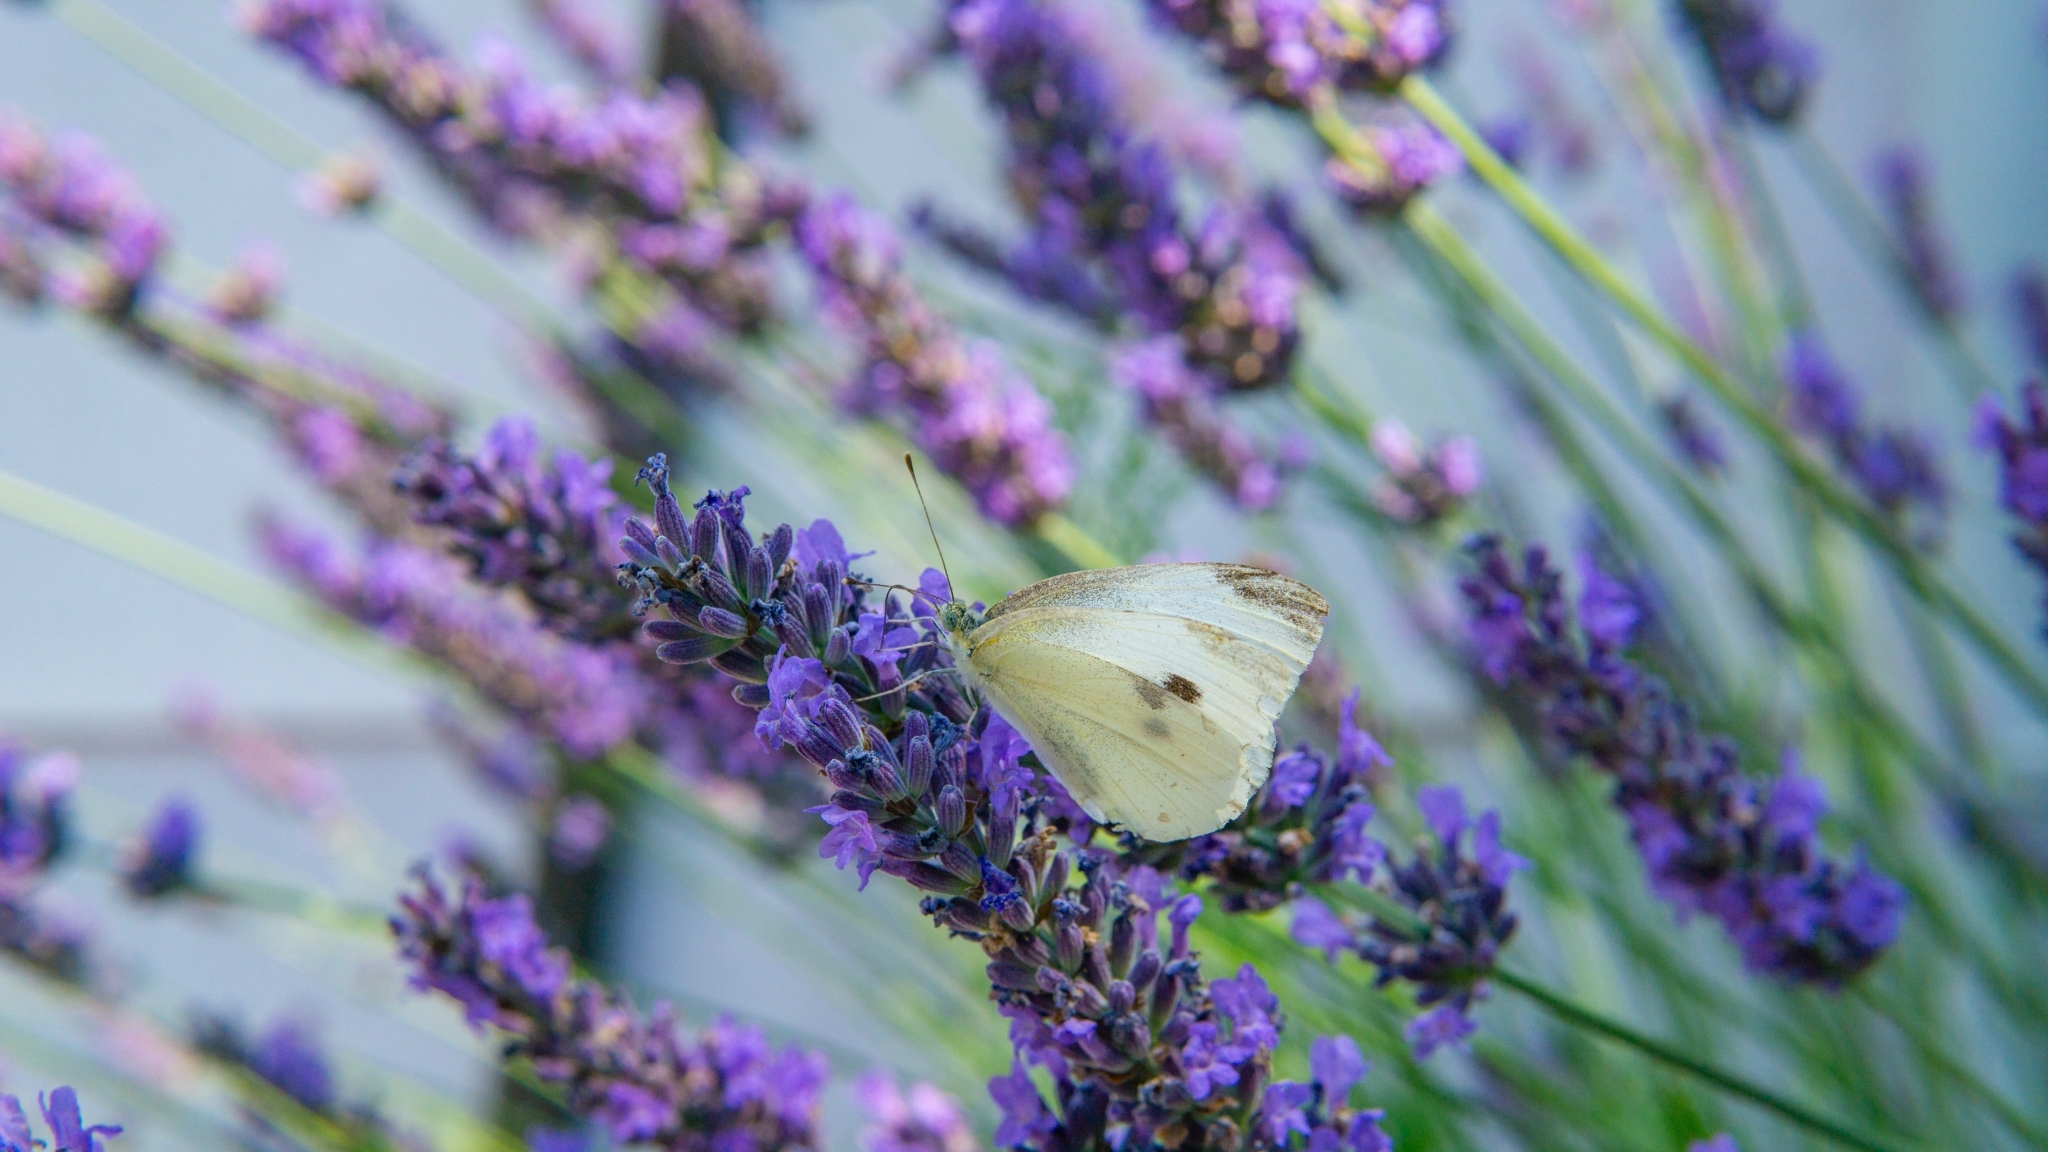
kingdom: Animalia
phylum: Arthropoda
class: Insecta
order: Lepidoptera
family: Pieridae
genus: Pieris
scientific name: Pieris rapae
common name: Small white
